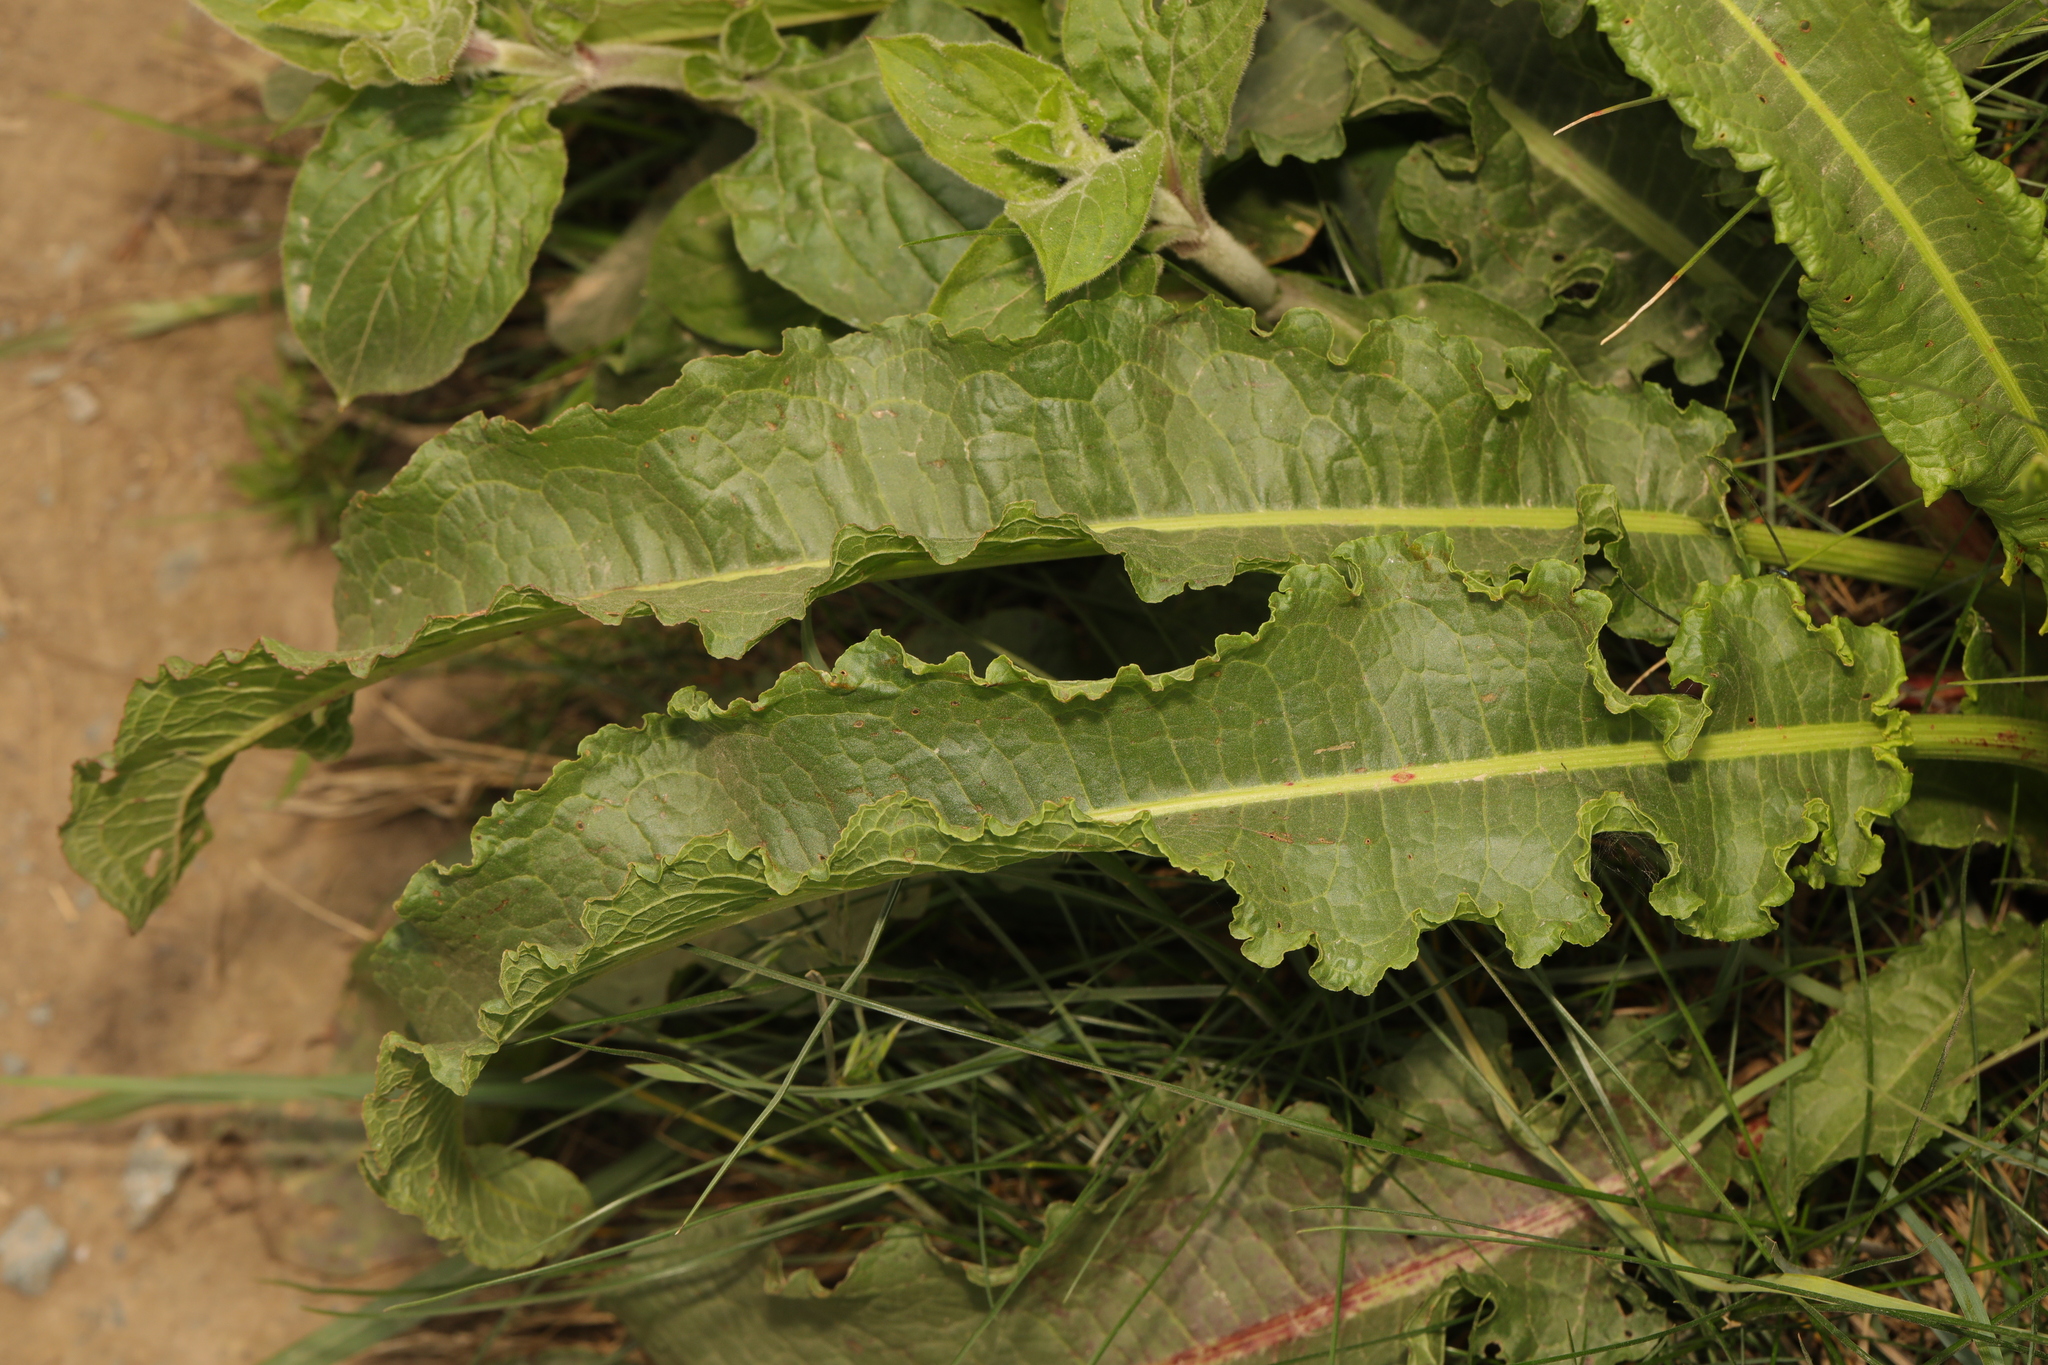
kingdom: Plantae
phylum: Tracheophyta
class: Magnoliopsida
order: Caryophyllales
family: Polygonaceae
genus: Rumex
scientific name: Rumex crispus
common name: Curled dock
